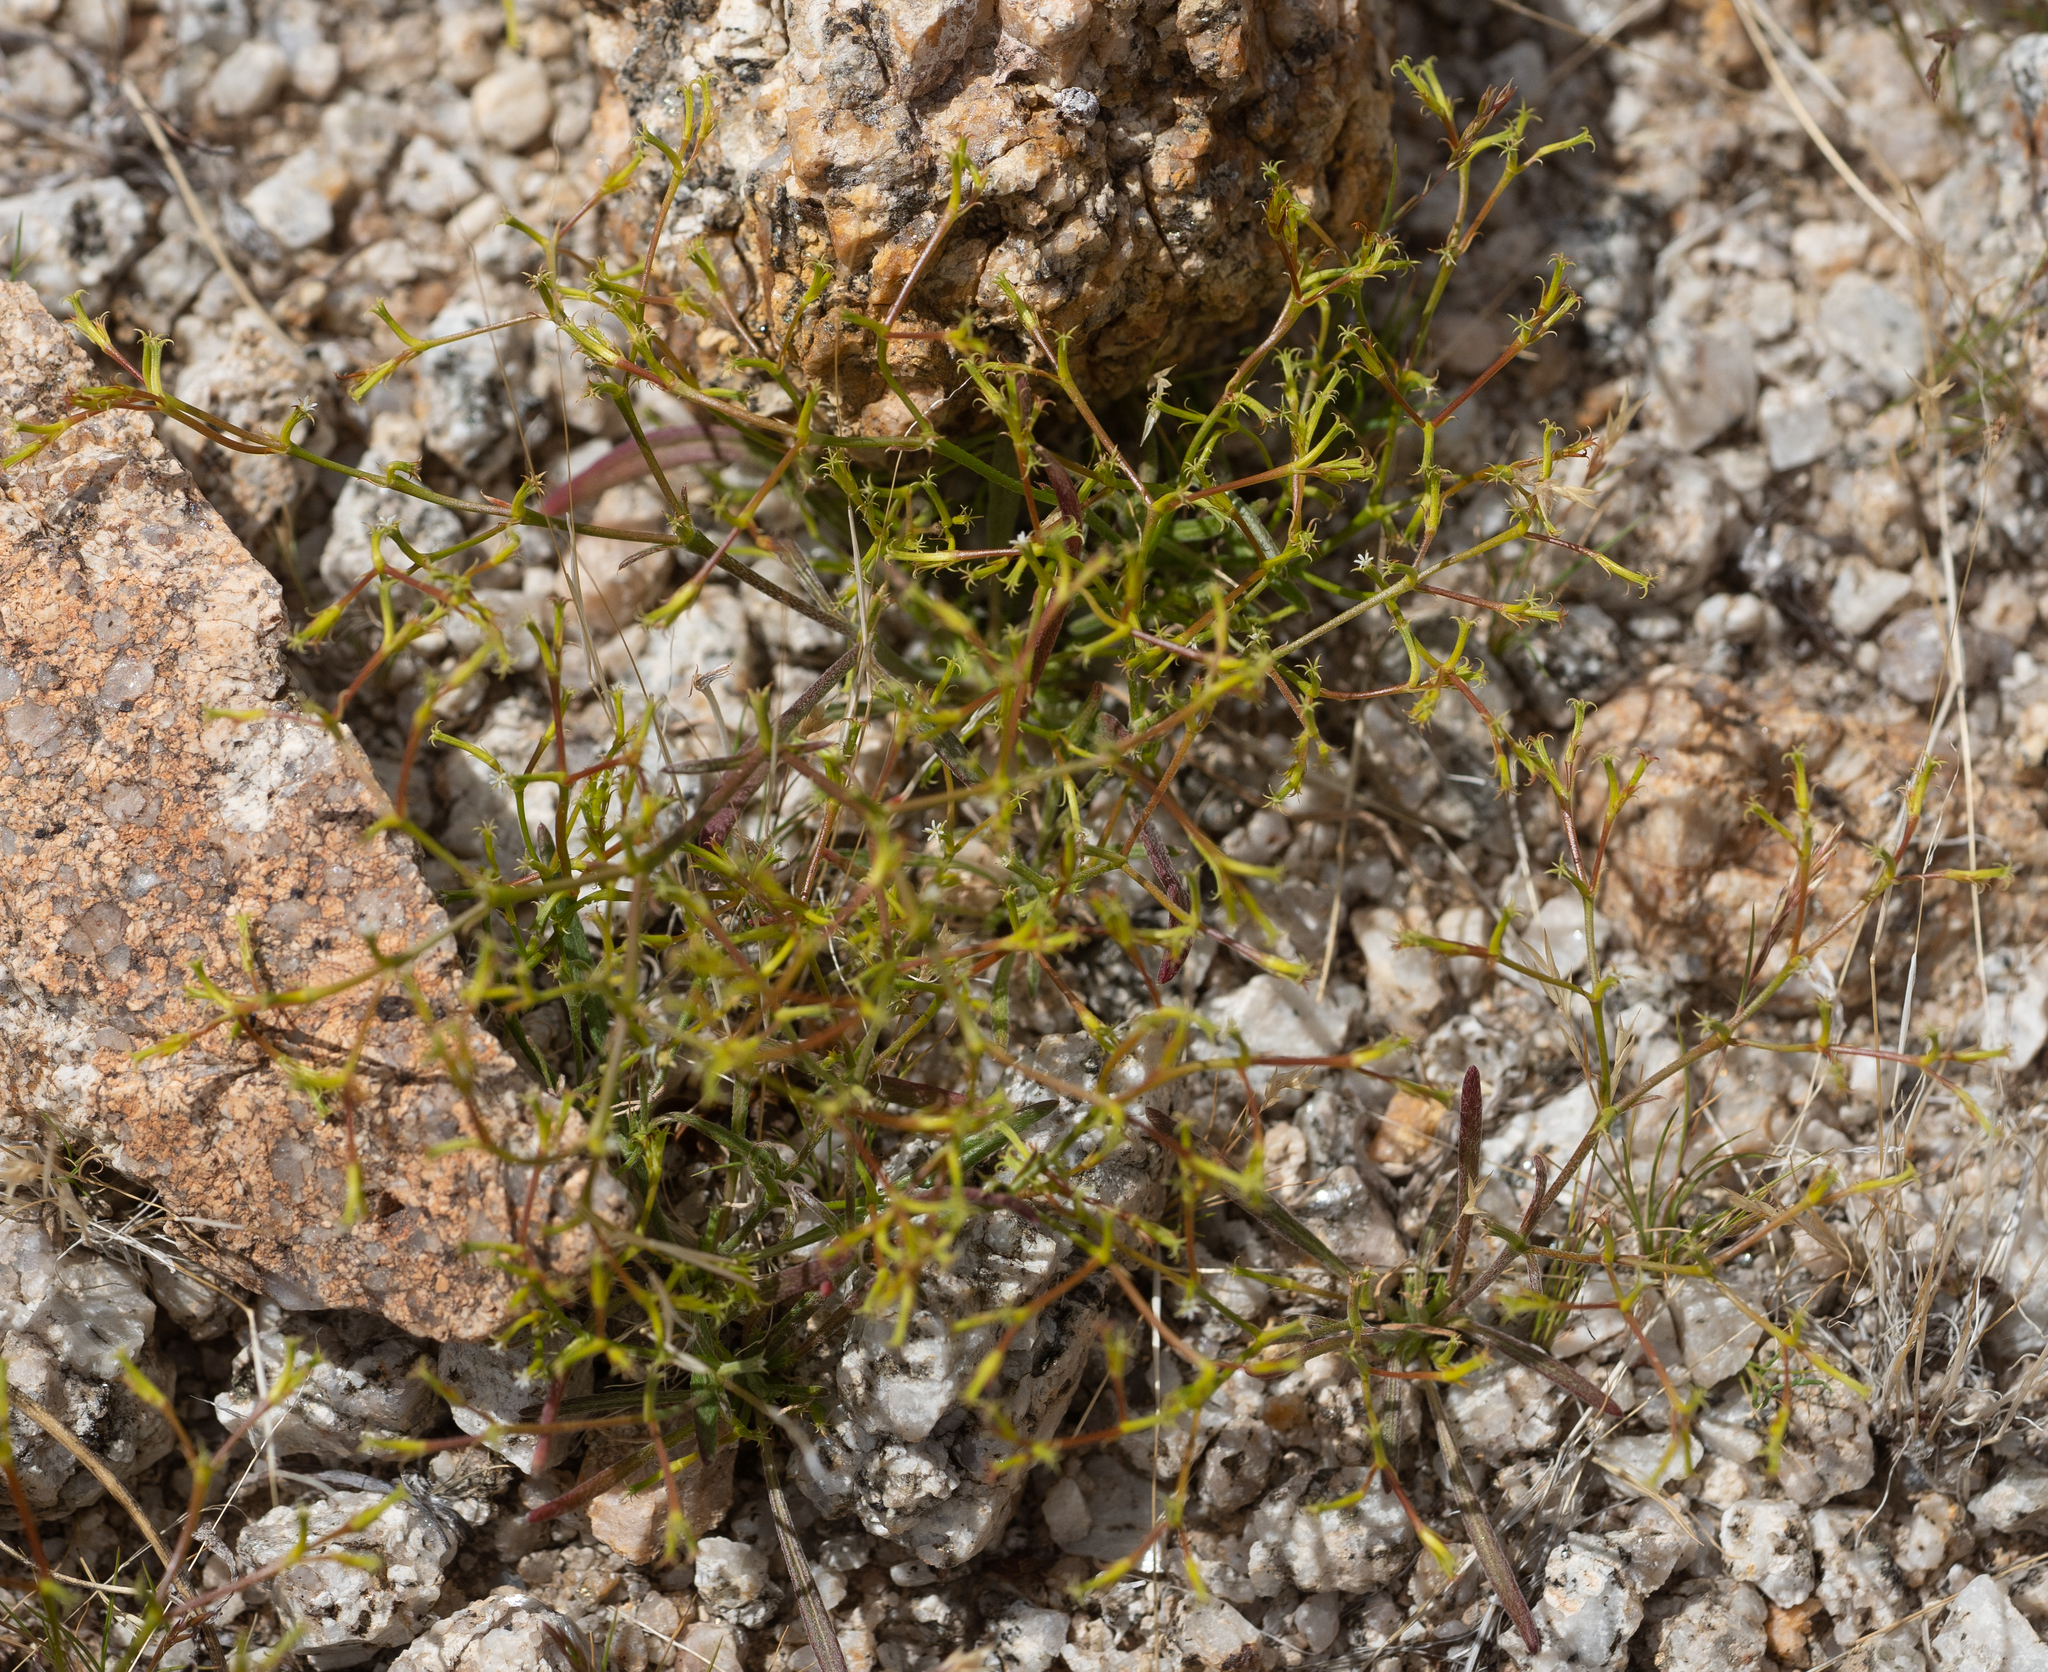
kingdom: Plantae
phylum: Tracheophyta
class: Magnoliopsida
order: Caryophyllales
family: Polygonaceae
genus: Chorizanthe
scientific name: Chorizanthe brevicornu
